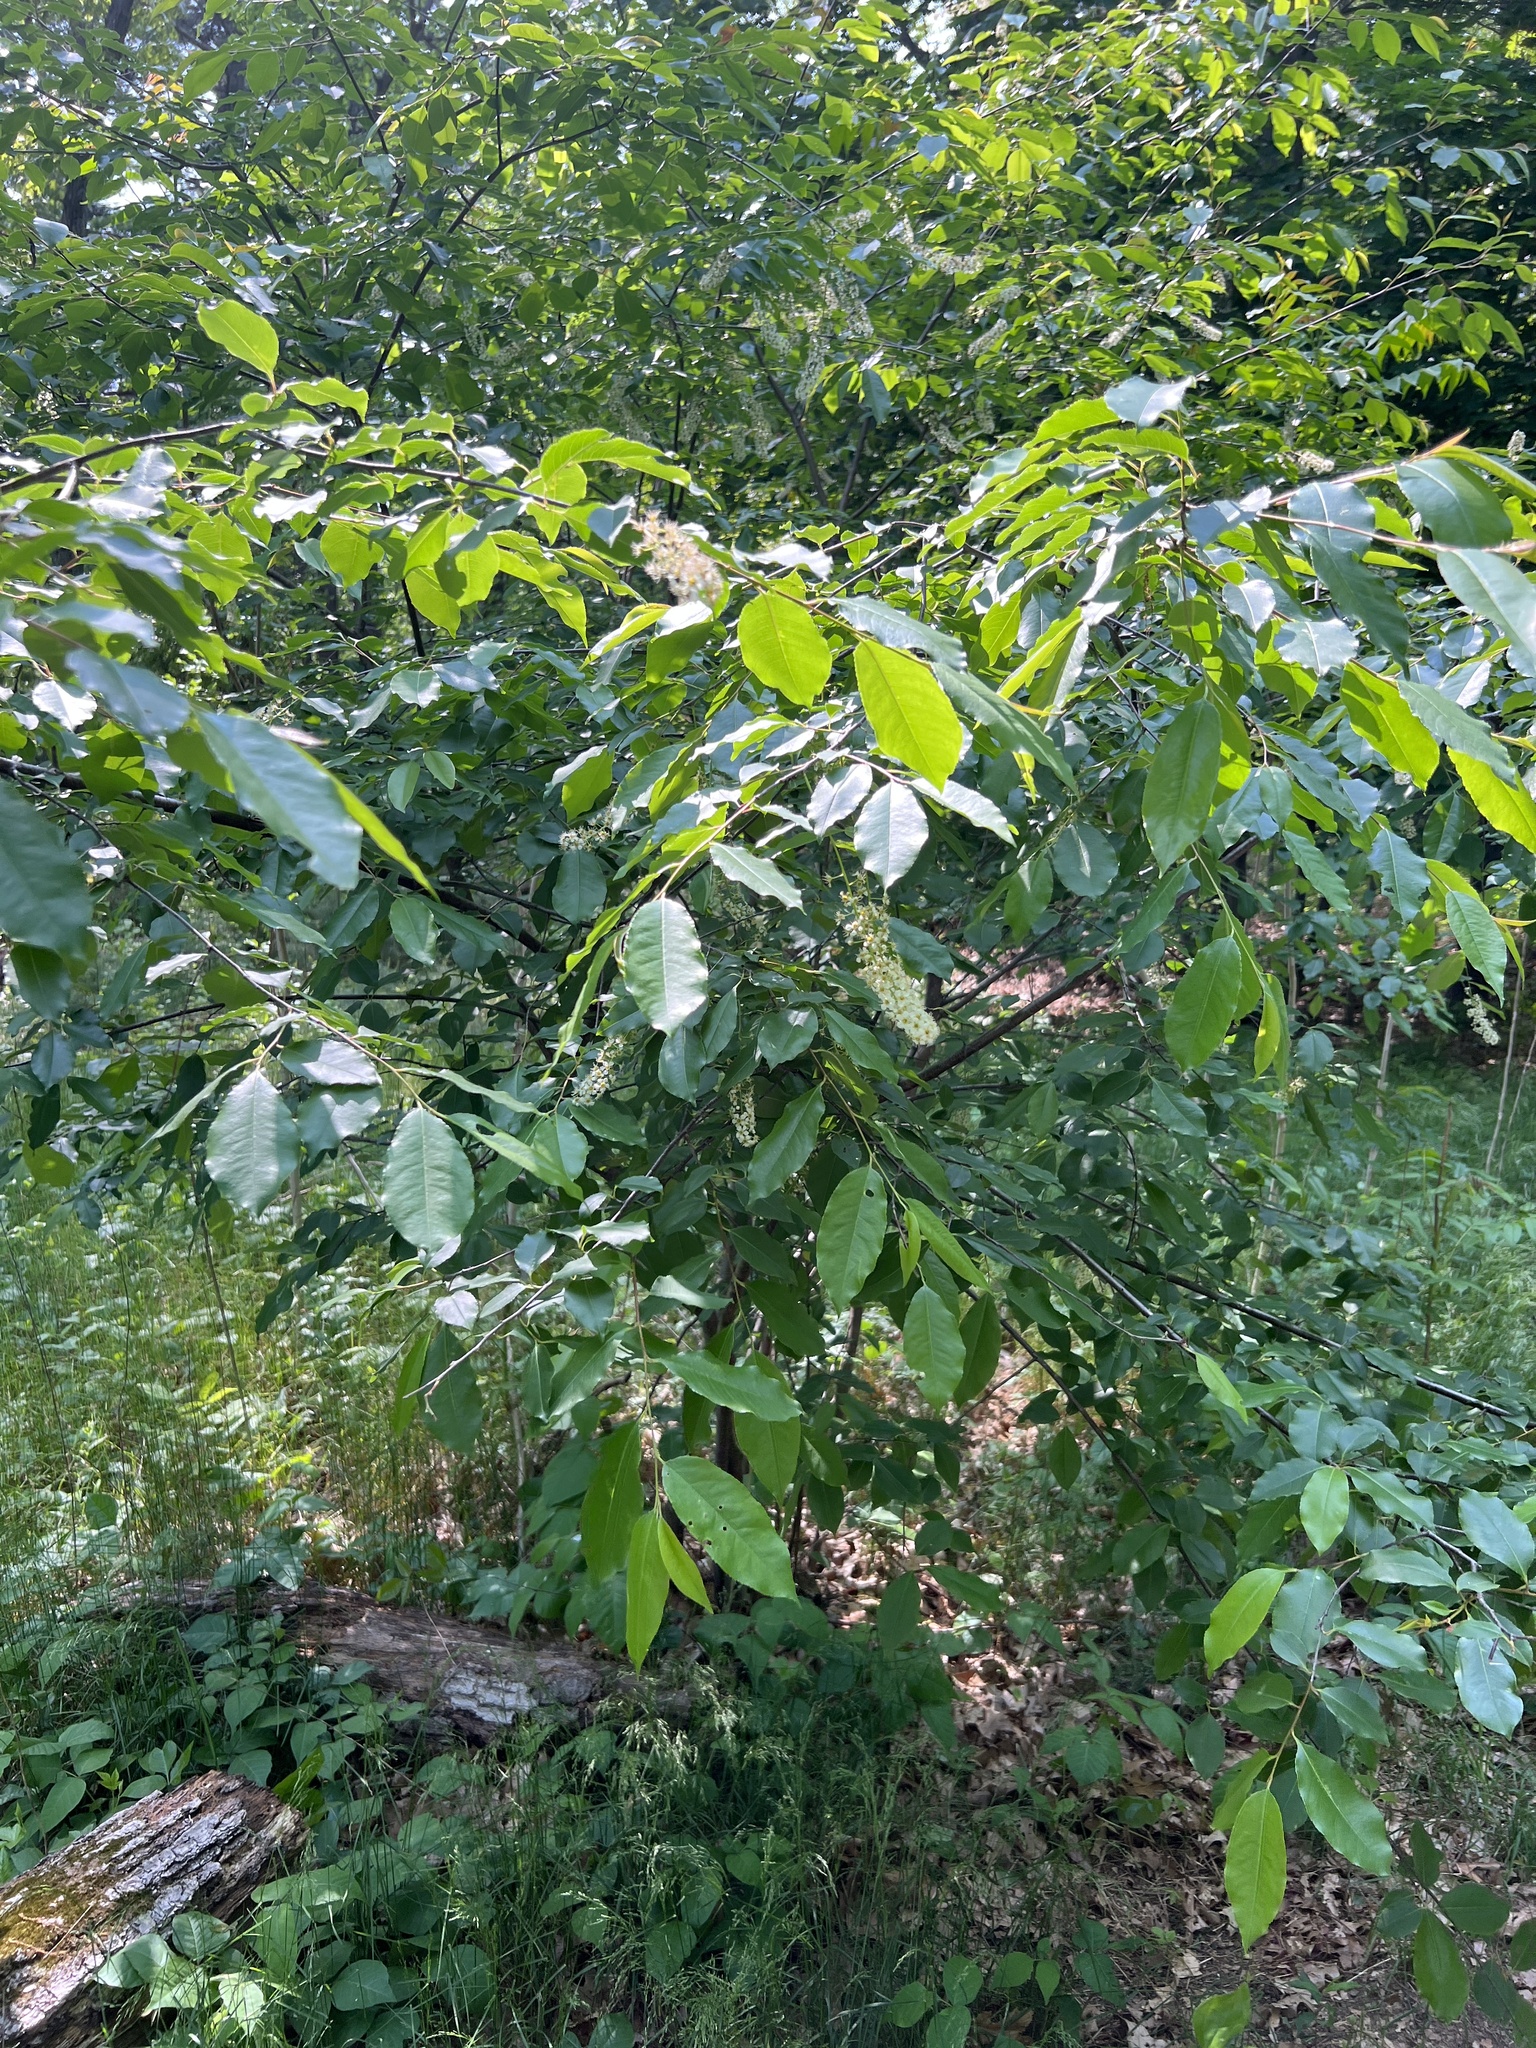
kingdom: Plantae
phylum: Tracheophyta
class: Magnoliopsida
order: Rosales
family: Rosaceae
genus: Prunus
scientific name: Prunus serotina
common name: Black cherry
